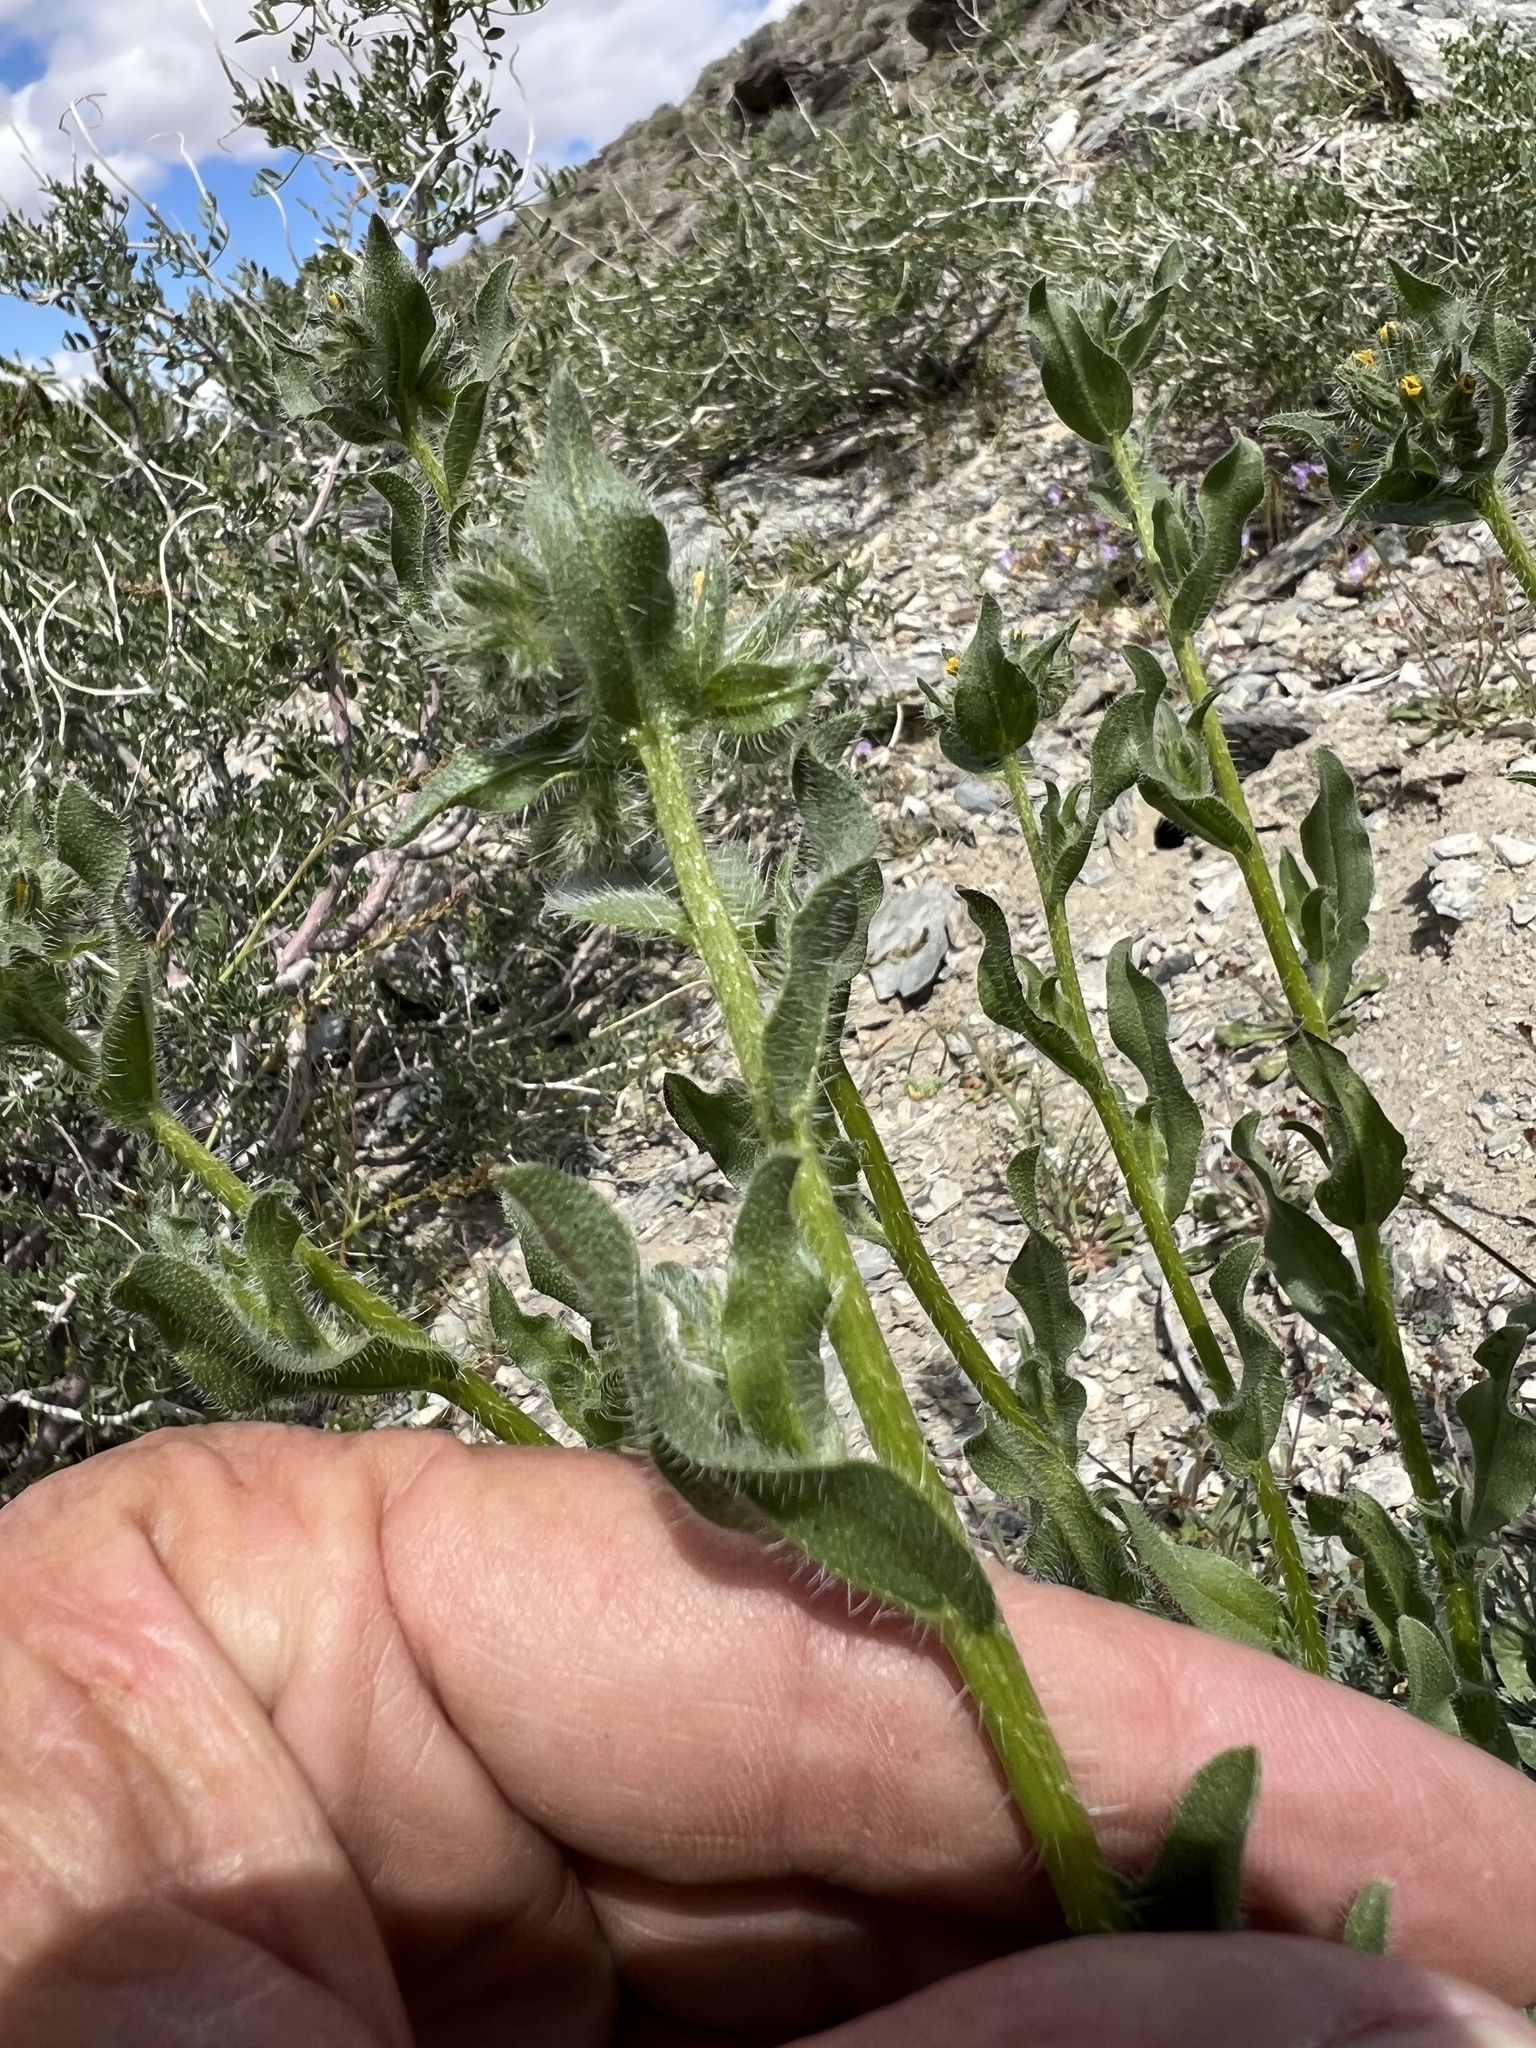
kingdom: Plantae
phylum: Tracheophyta
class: Magnoliopsida
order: Boraginales
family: Boraginaceae
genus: Amsinckia
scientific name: Amsinckia tessellata
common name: Tessellate fiddleneck
